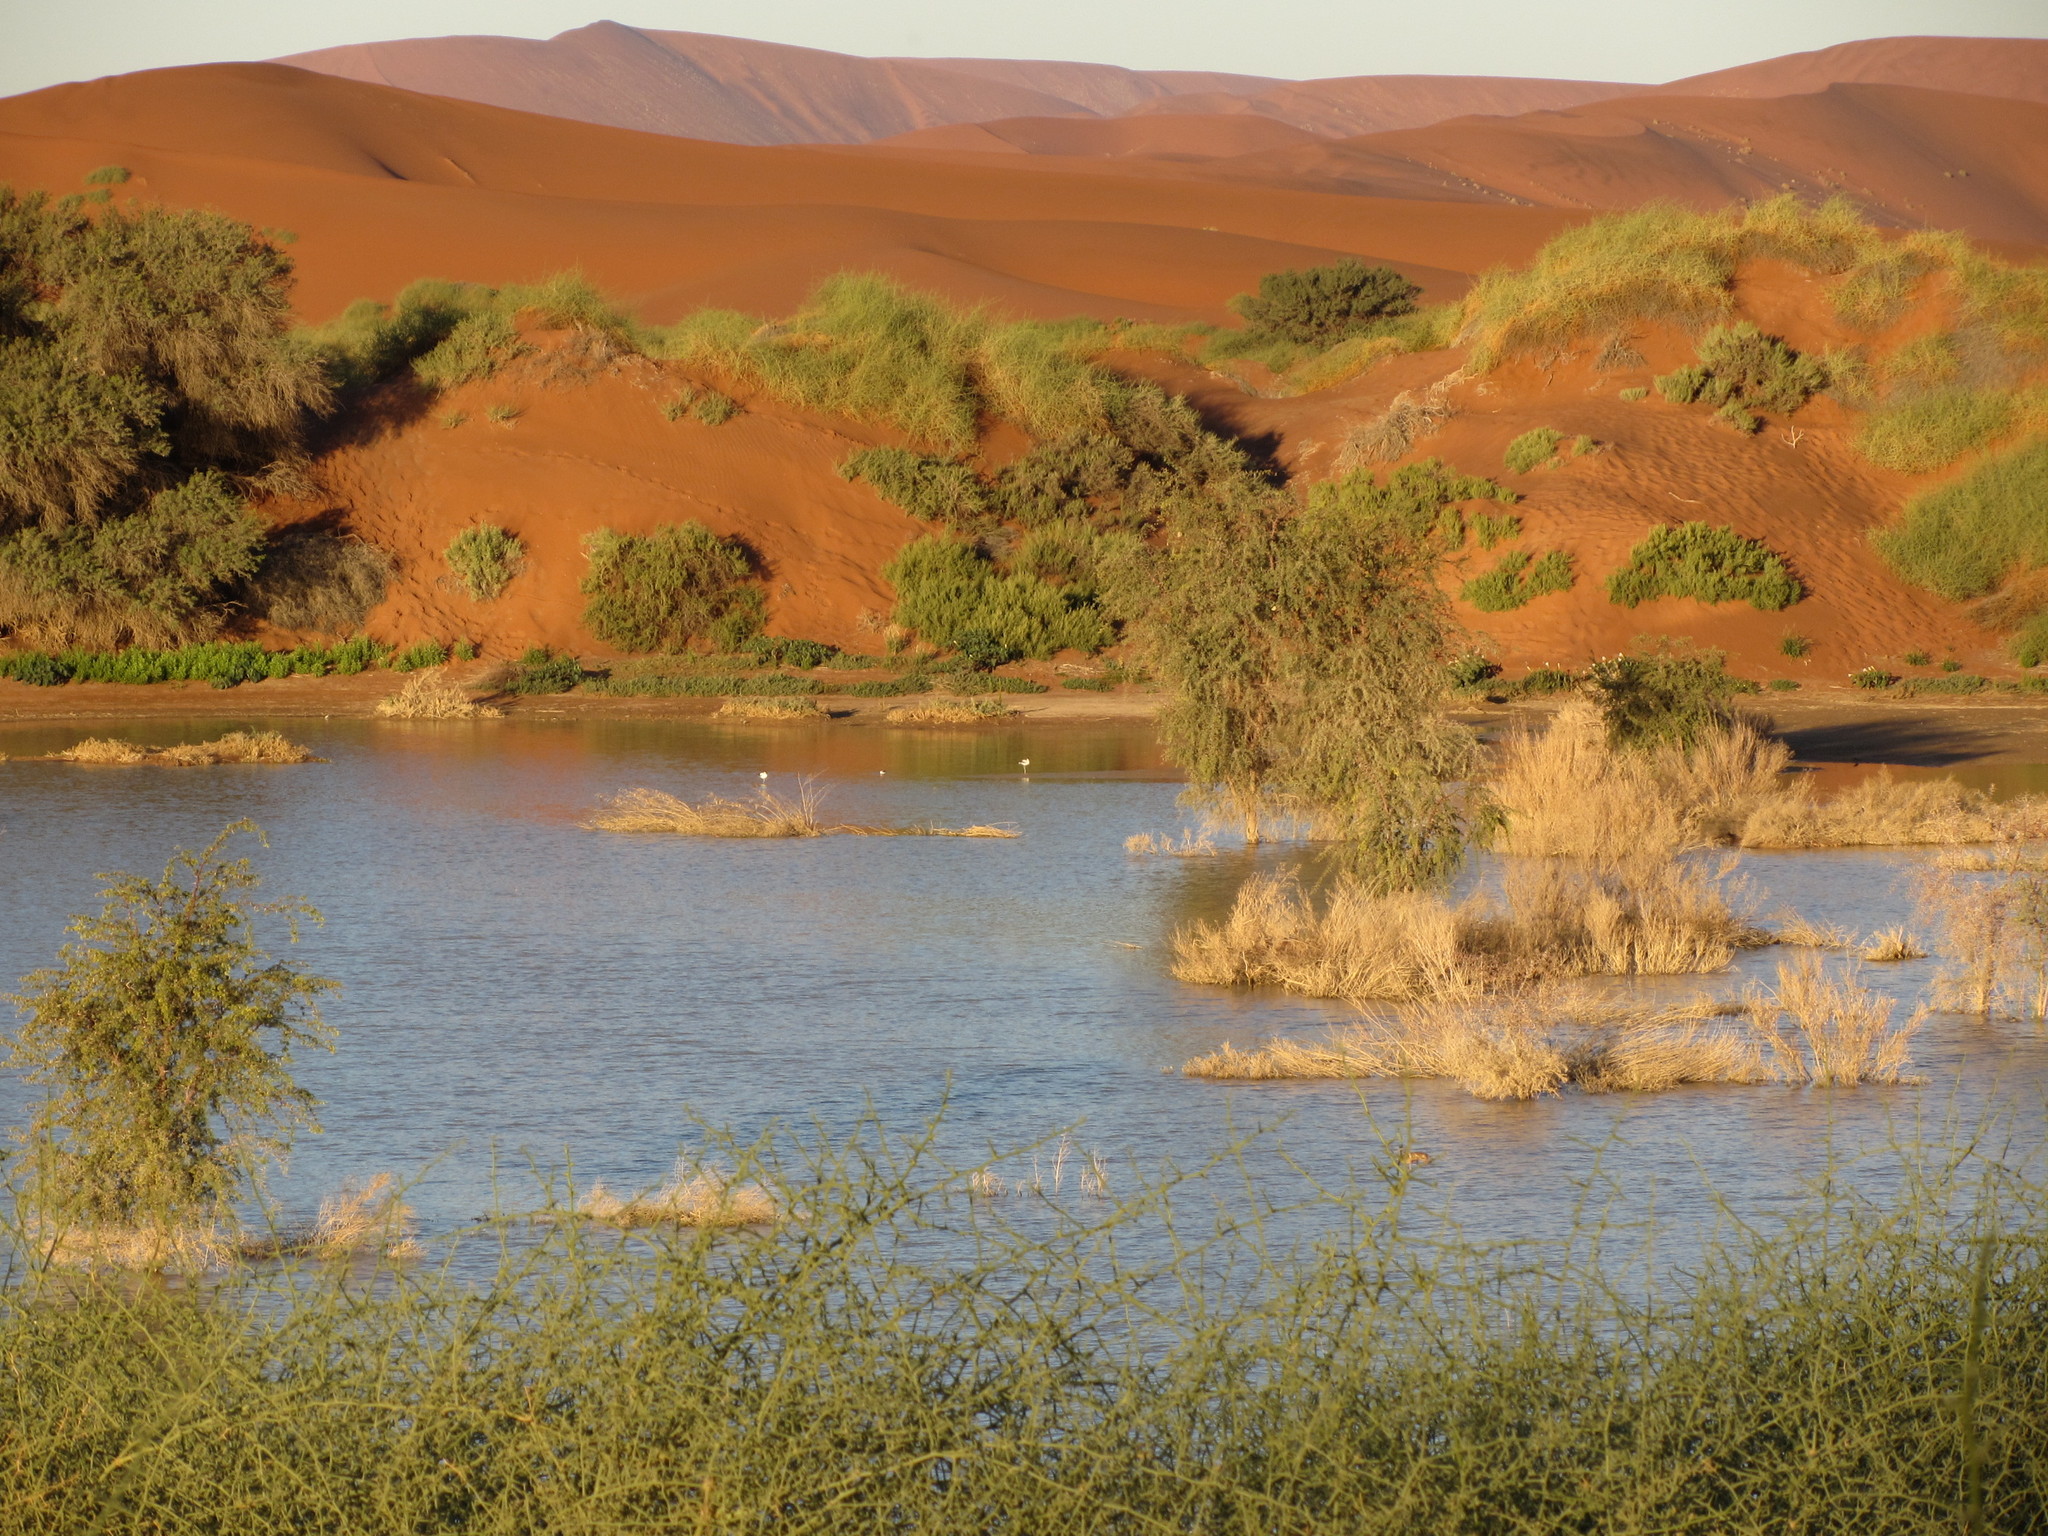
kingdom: Animalia
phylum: Chordata
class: Aves
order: Charadriiformes
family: Recurvirostridae
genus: Recurvirostra
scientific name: Recurvirostra avosetta
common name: Pied avocet
